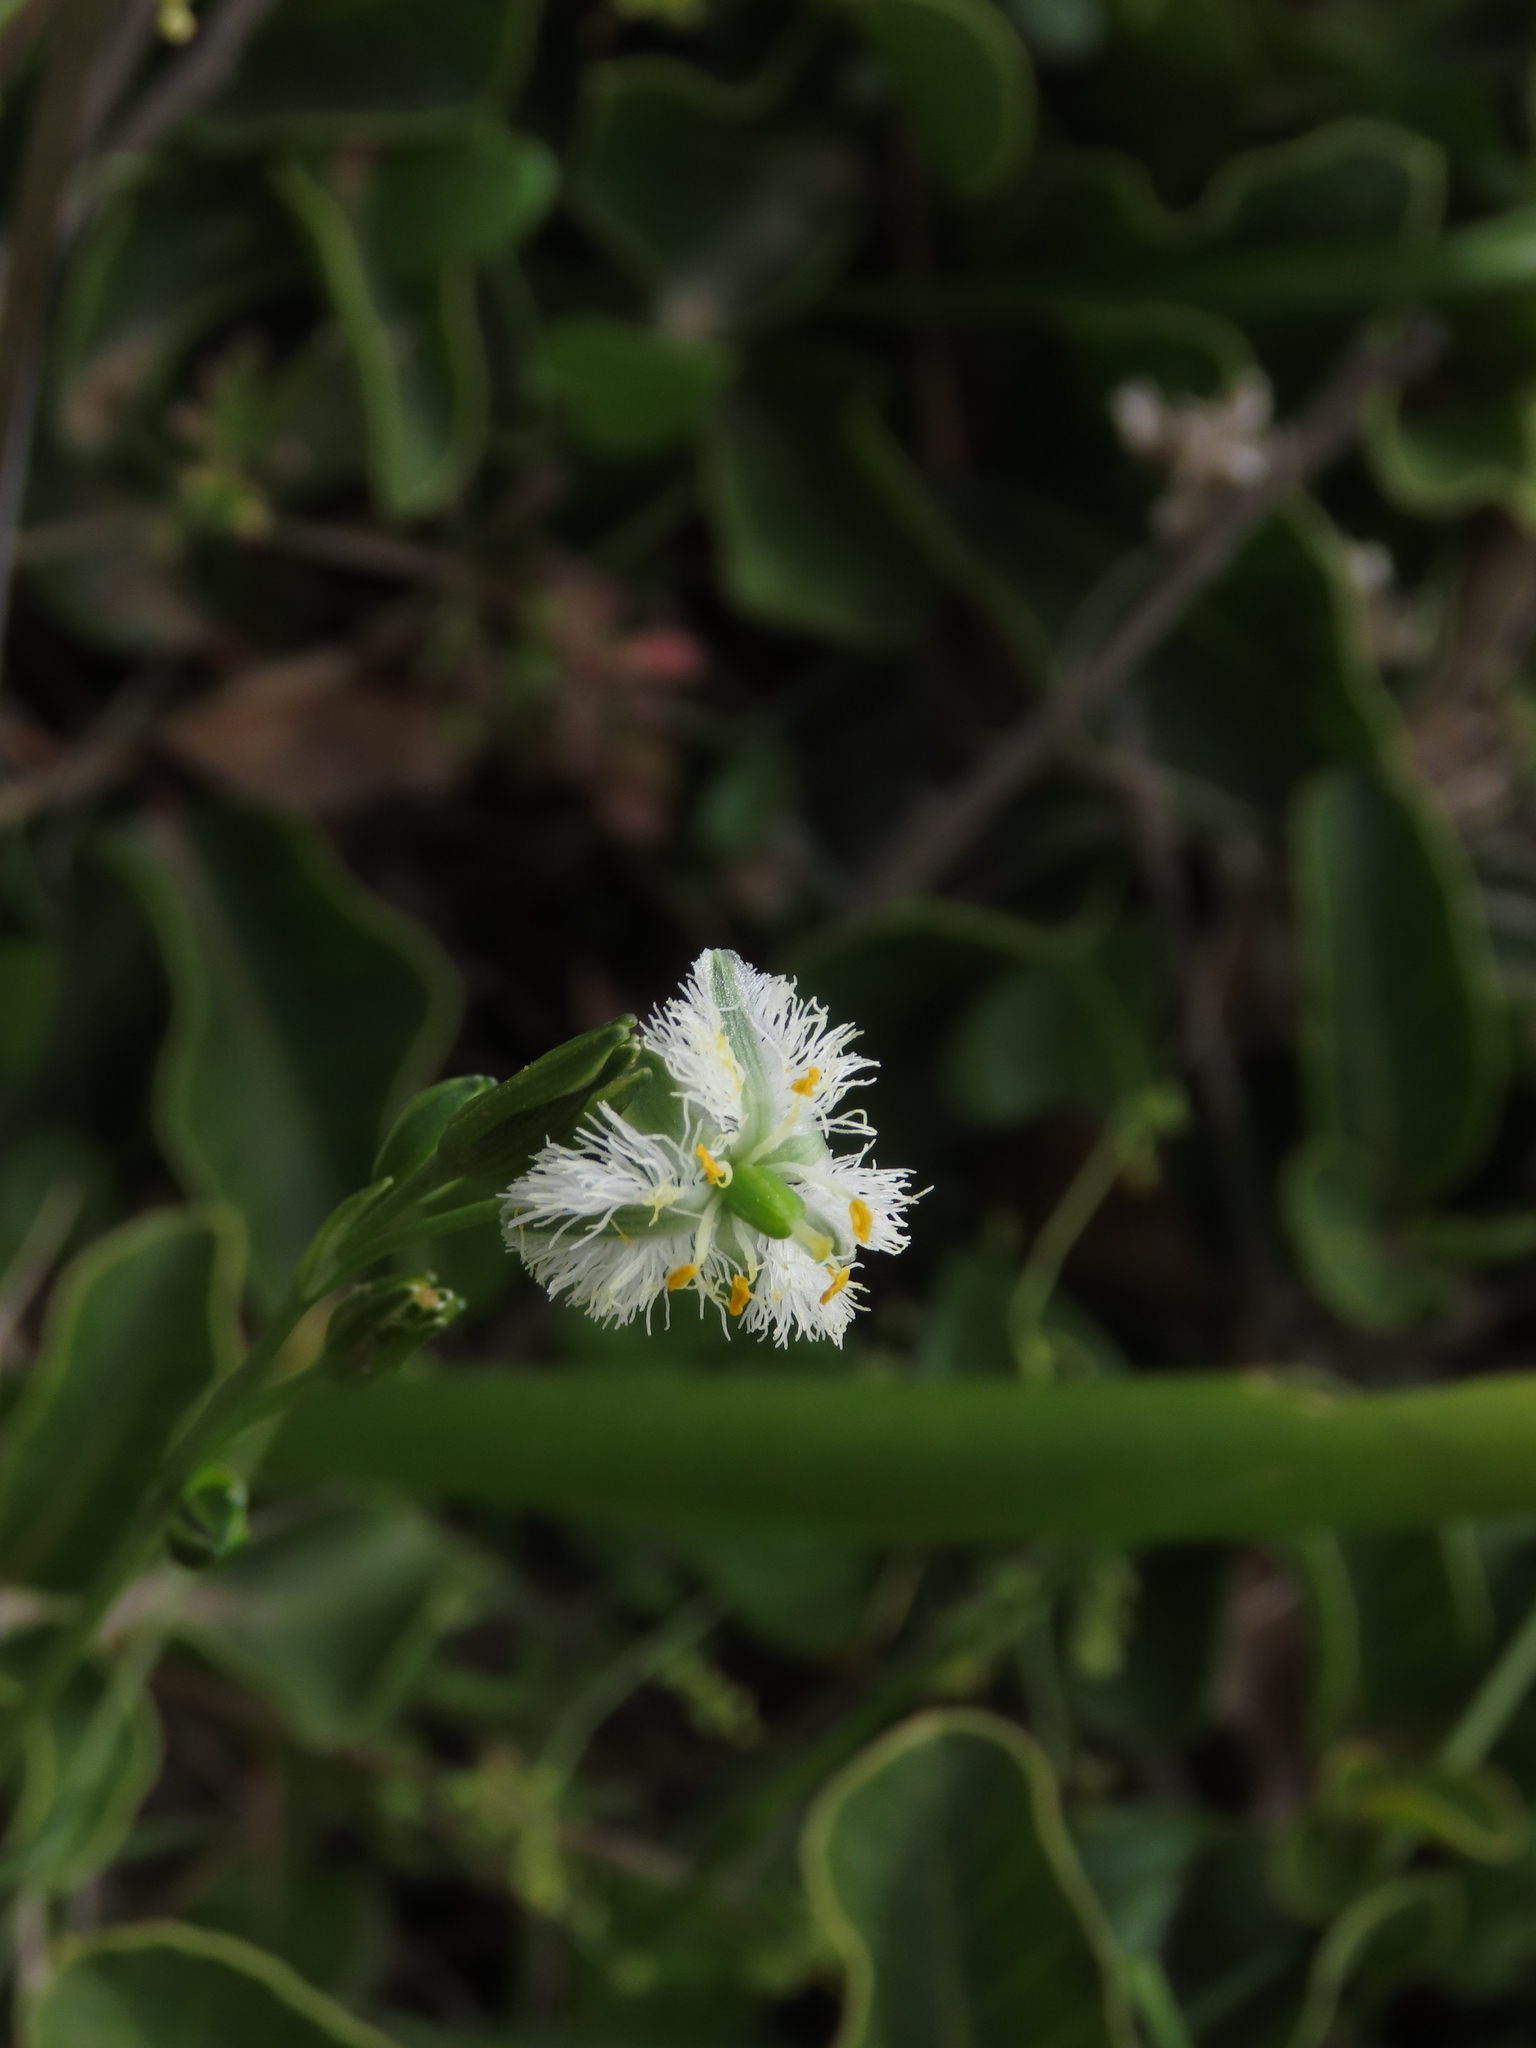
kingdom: Plantae
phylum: Tracheophyta
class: Liliopsida
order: Asparagales
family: Asparagaceae
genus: Trichopetalum
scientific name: Trichopetalum plumosum
